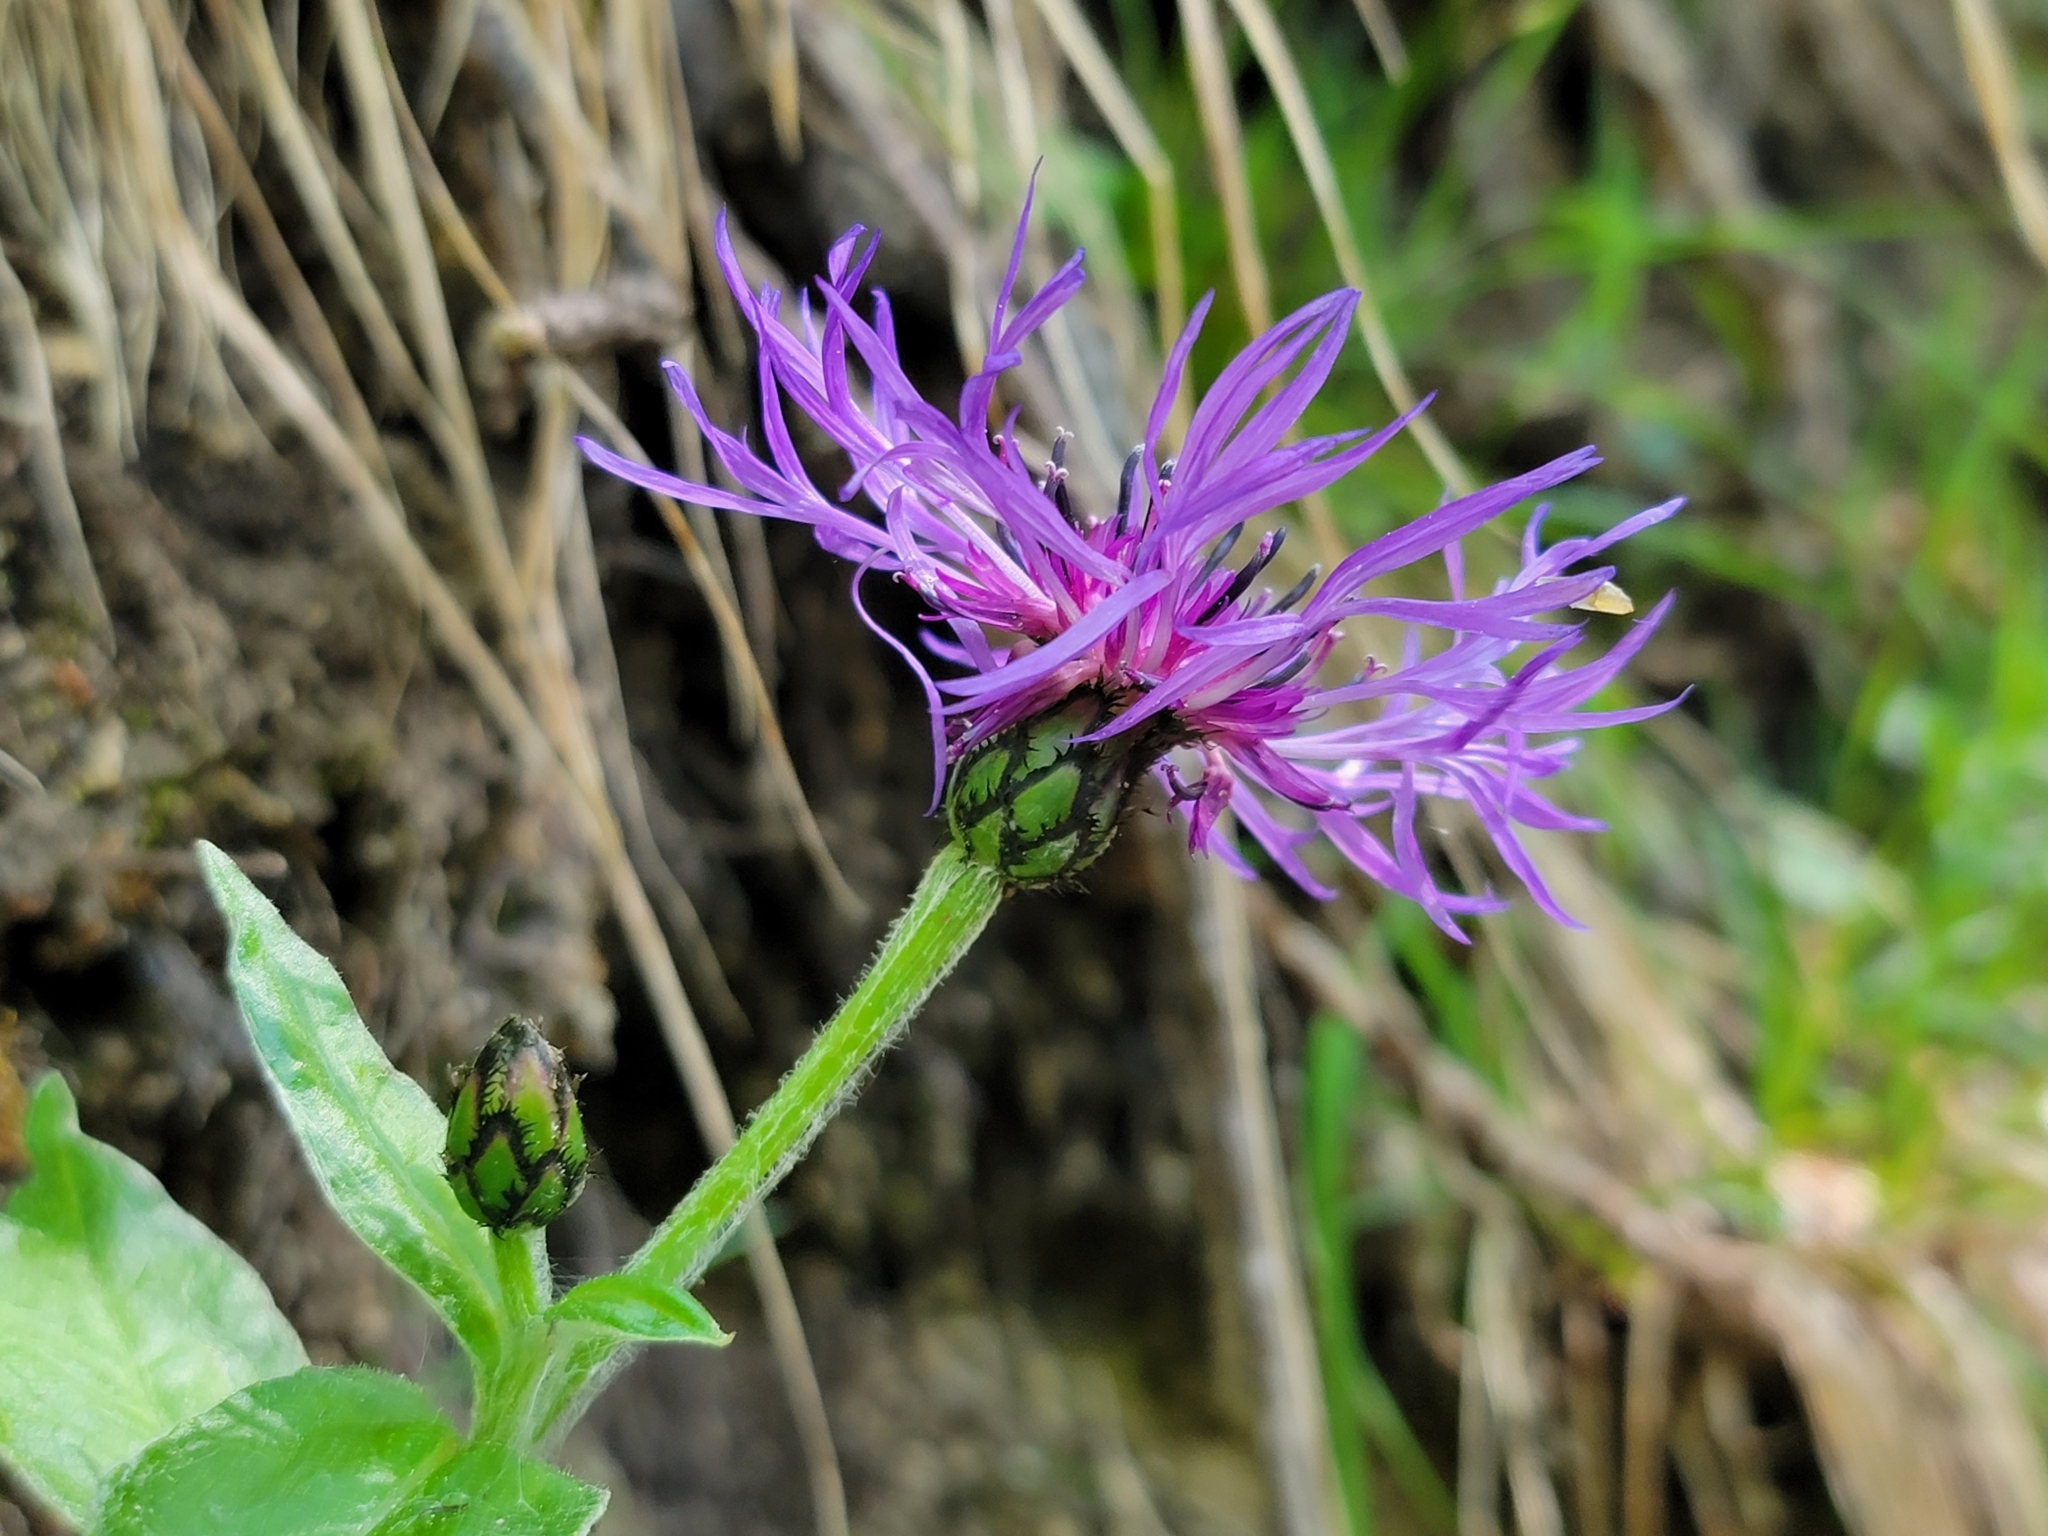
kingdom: Plantae
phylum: Tracheophyta
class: Magnoliopsida
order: Asterales
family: Asteraceae
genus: Centaurea
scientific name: Centaurea montana
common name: Perennial cornflower
